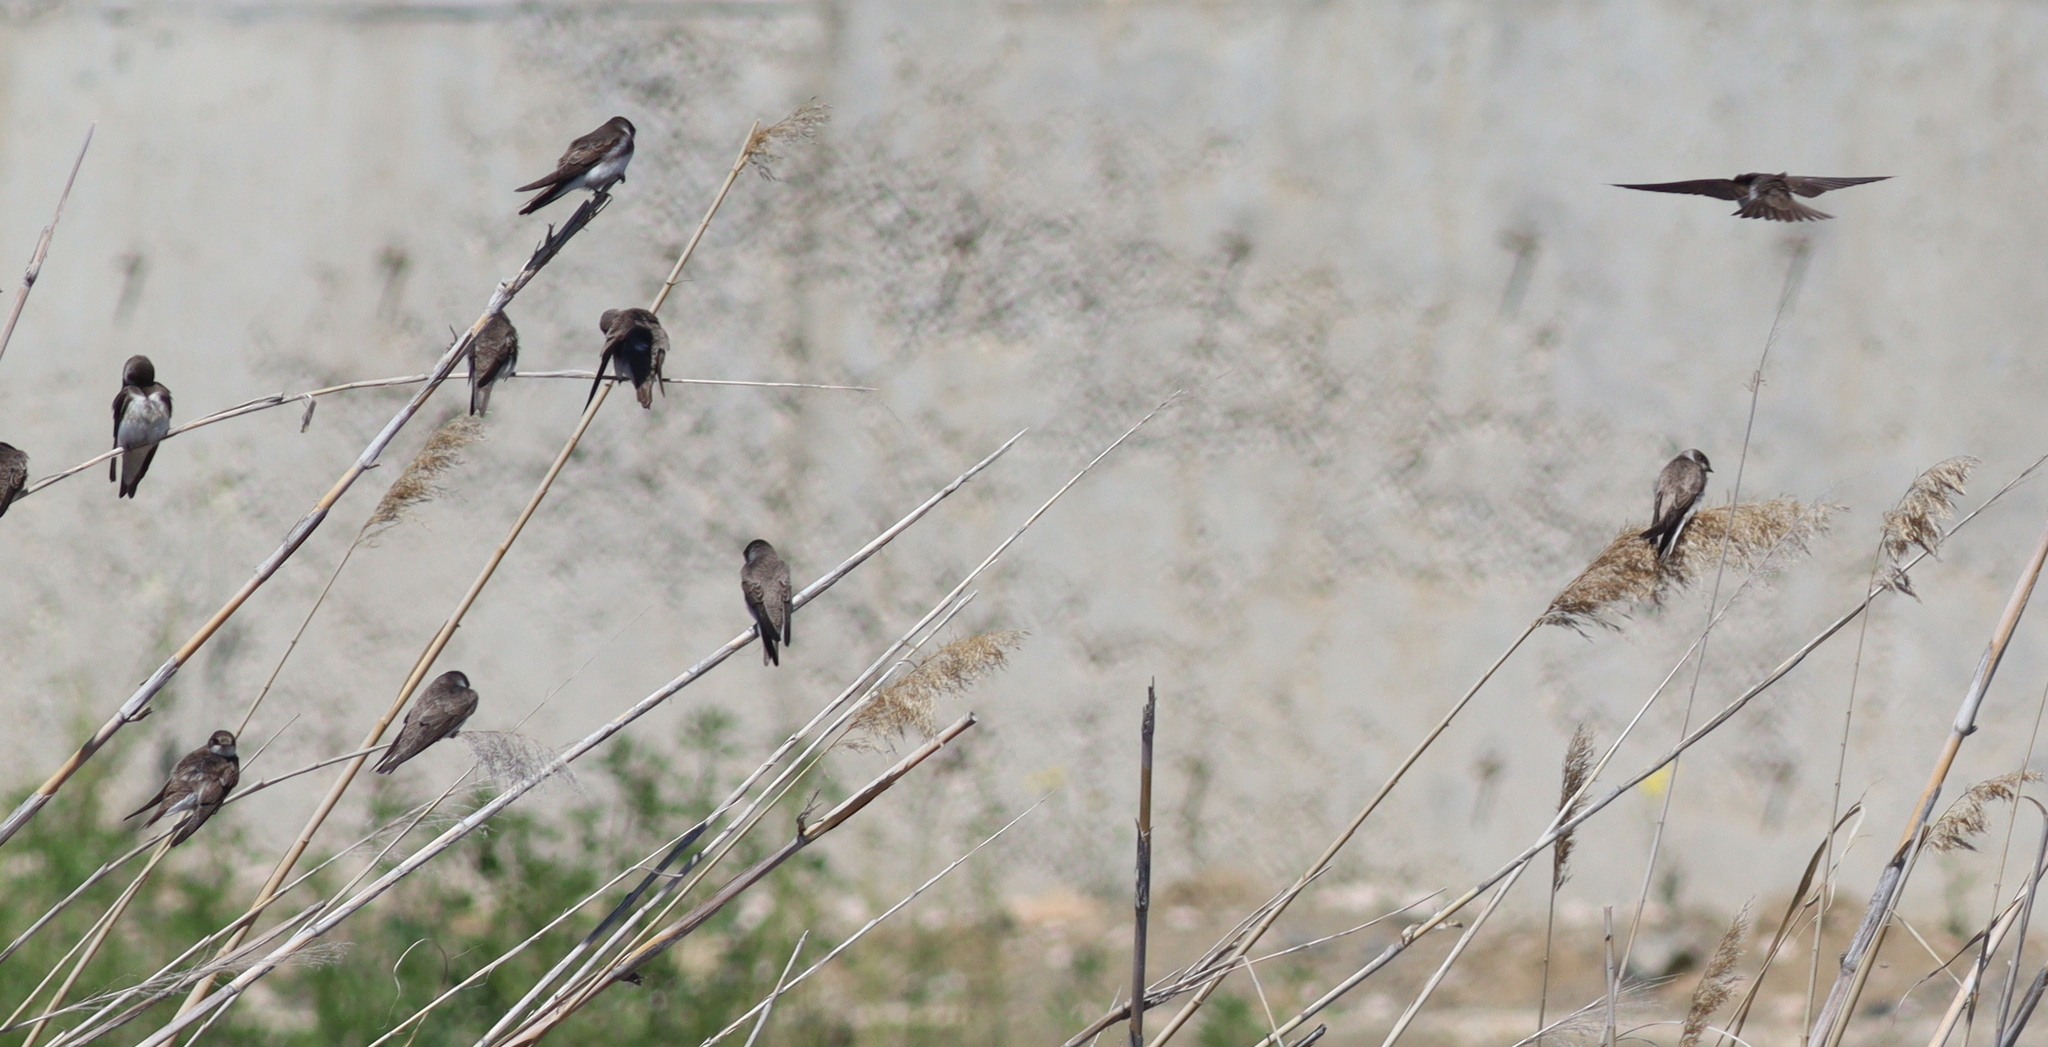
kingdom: Animalia
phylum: Chordata
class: Aves
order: Passeriformes
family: Hirundinidae
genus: Riparia
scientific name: Riparia riparia
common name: Sand martin
